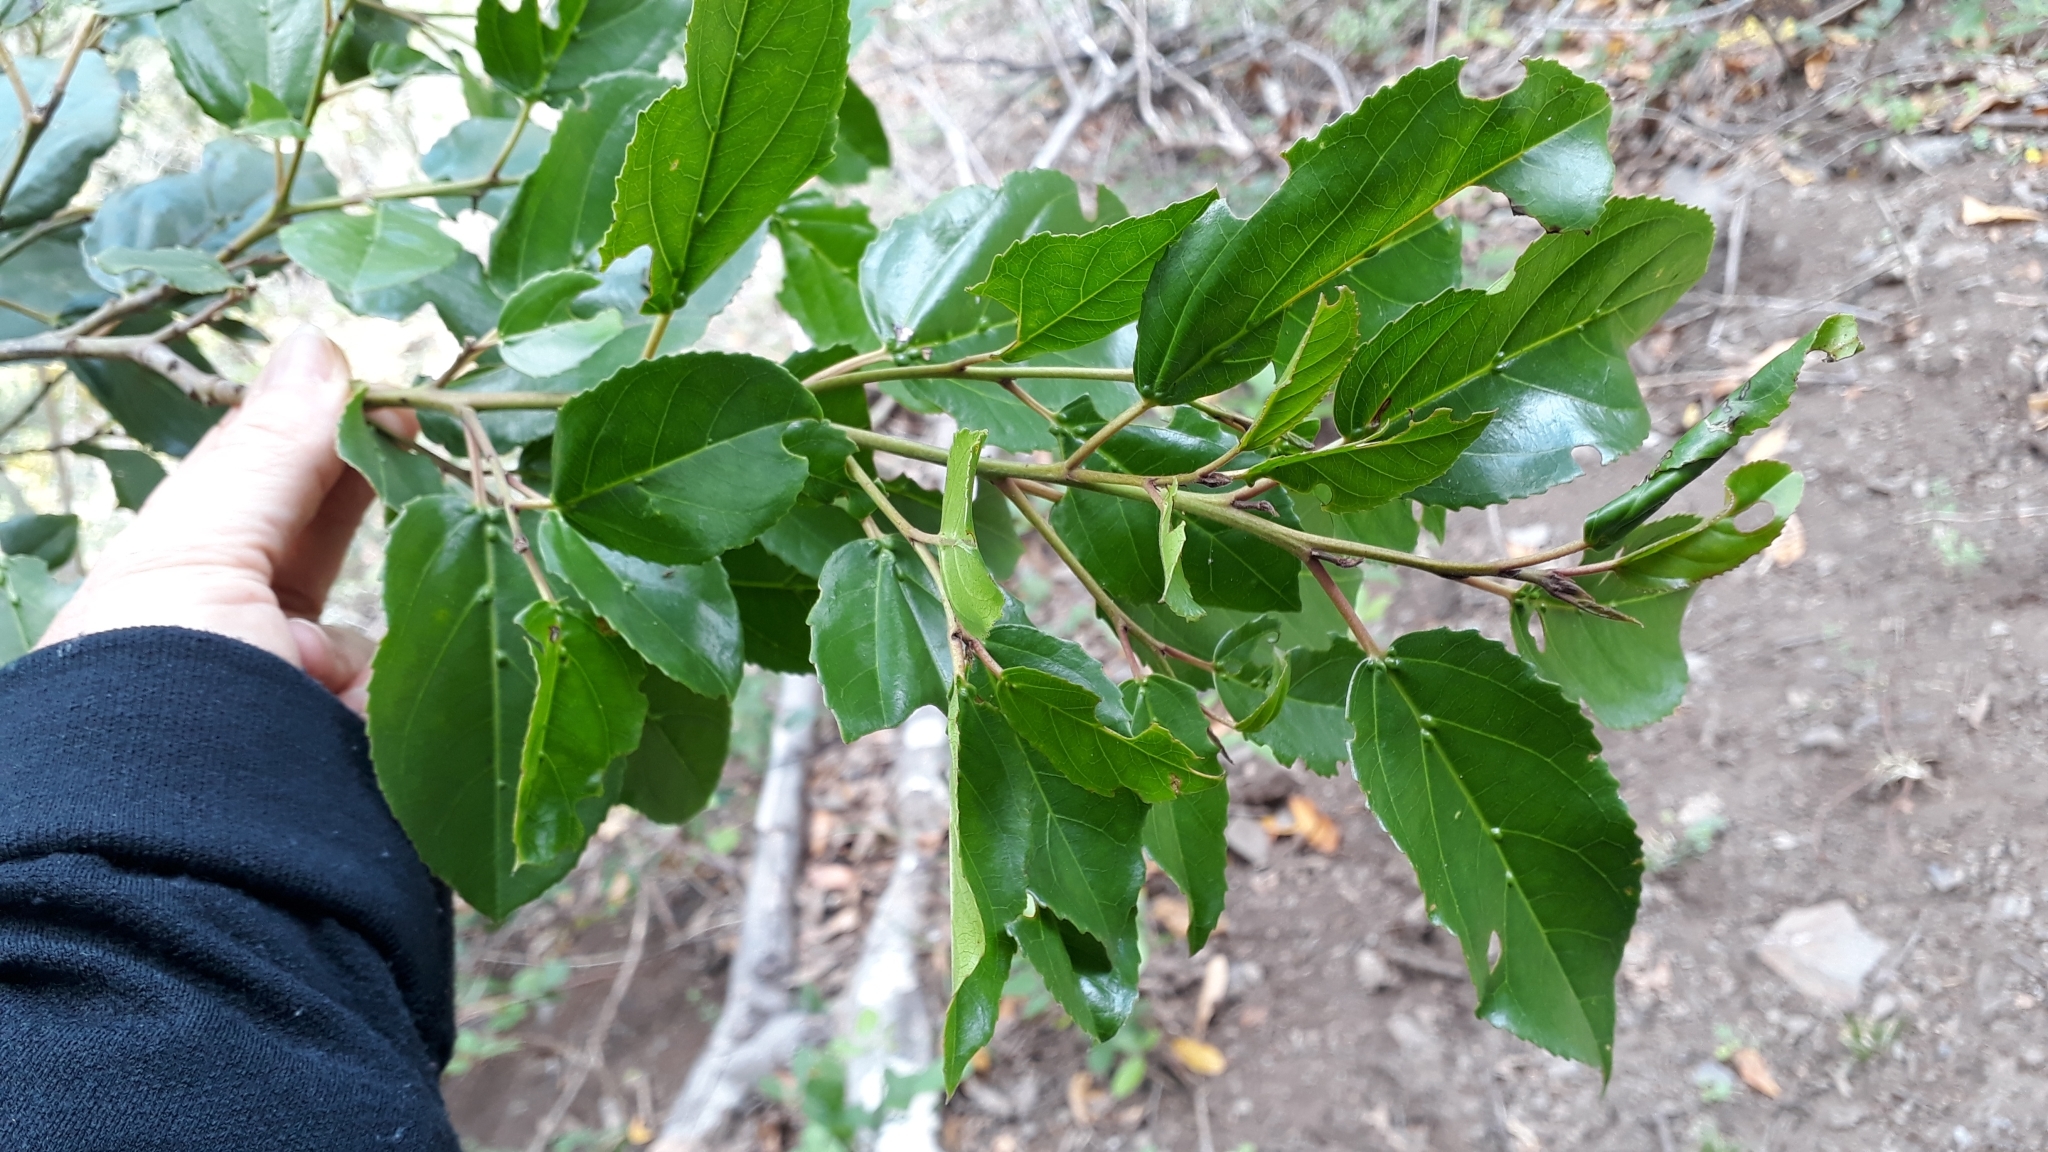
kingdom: Plantae
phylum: Tracheophyta
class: Magnoliopsida
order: Rosales
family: Rhamnaceae
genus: Rhamnus
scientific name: Rhamnus glandulosa
